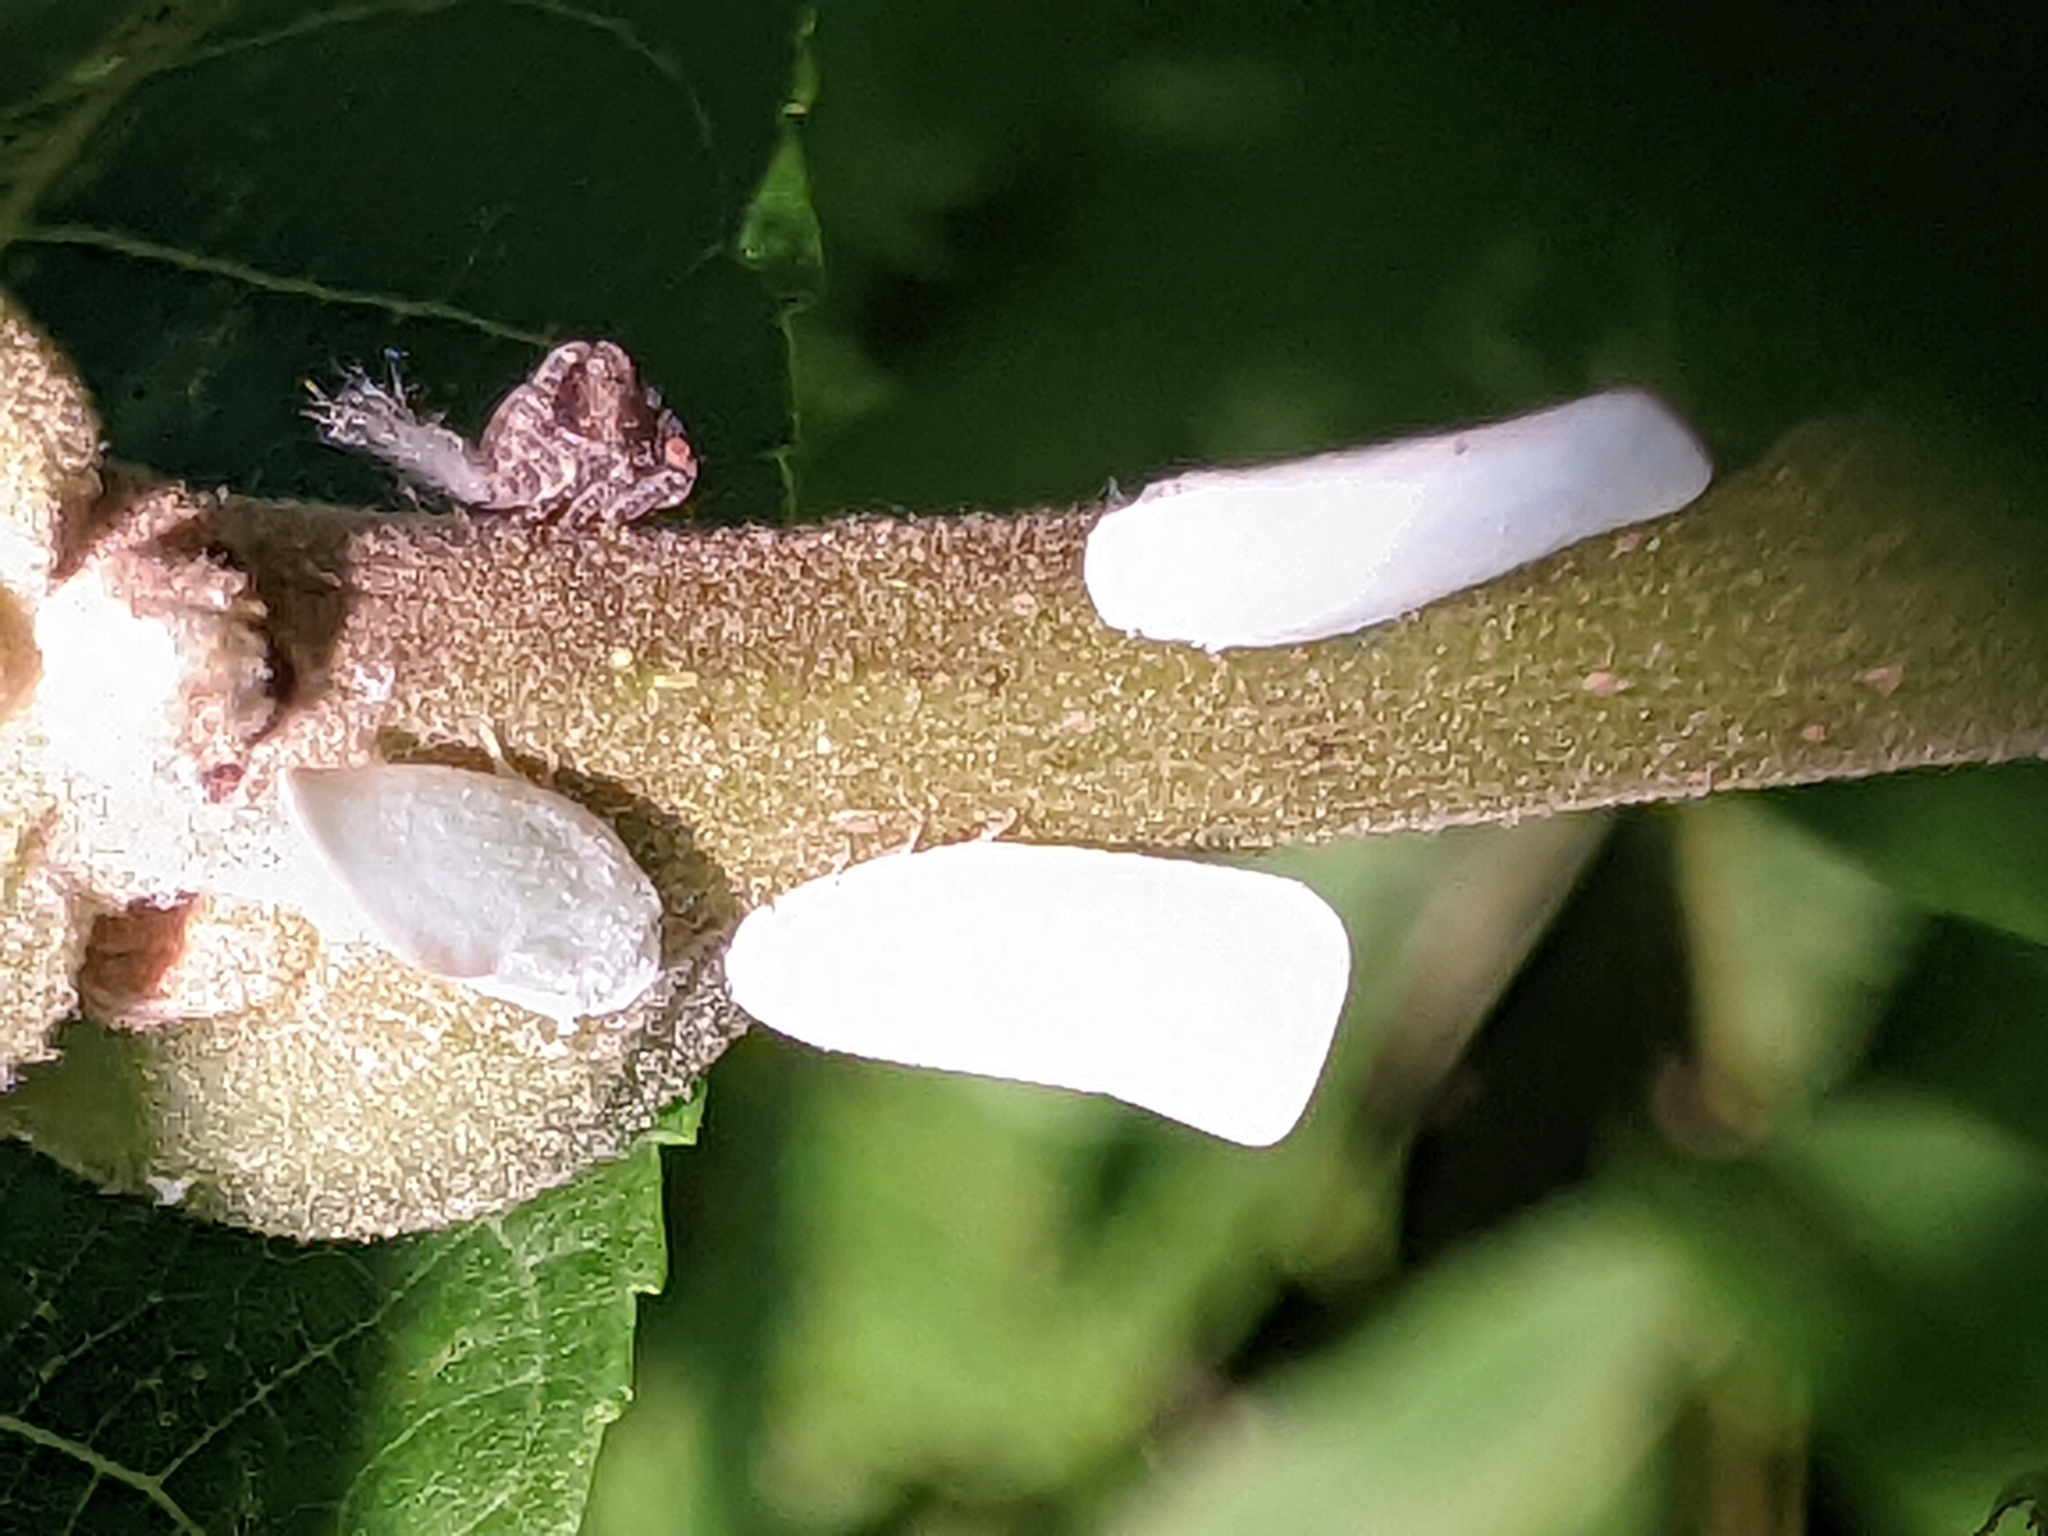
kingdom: Animalia
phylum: Arthropoda
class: Insecta
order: Hemiptera
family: Flatidae
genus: Flatormenis
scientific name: Flatormenis proxima
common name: Northern flatid planthopper
